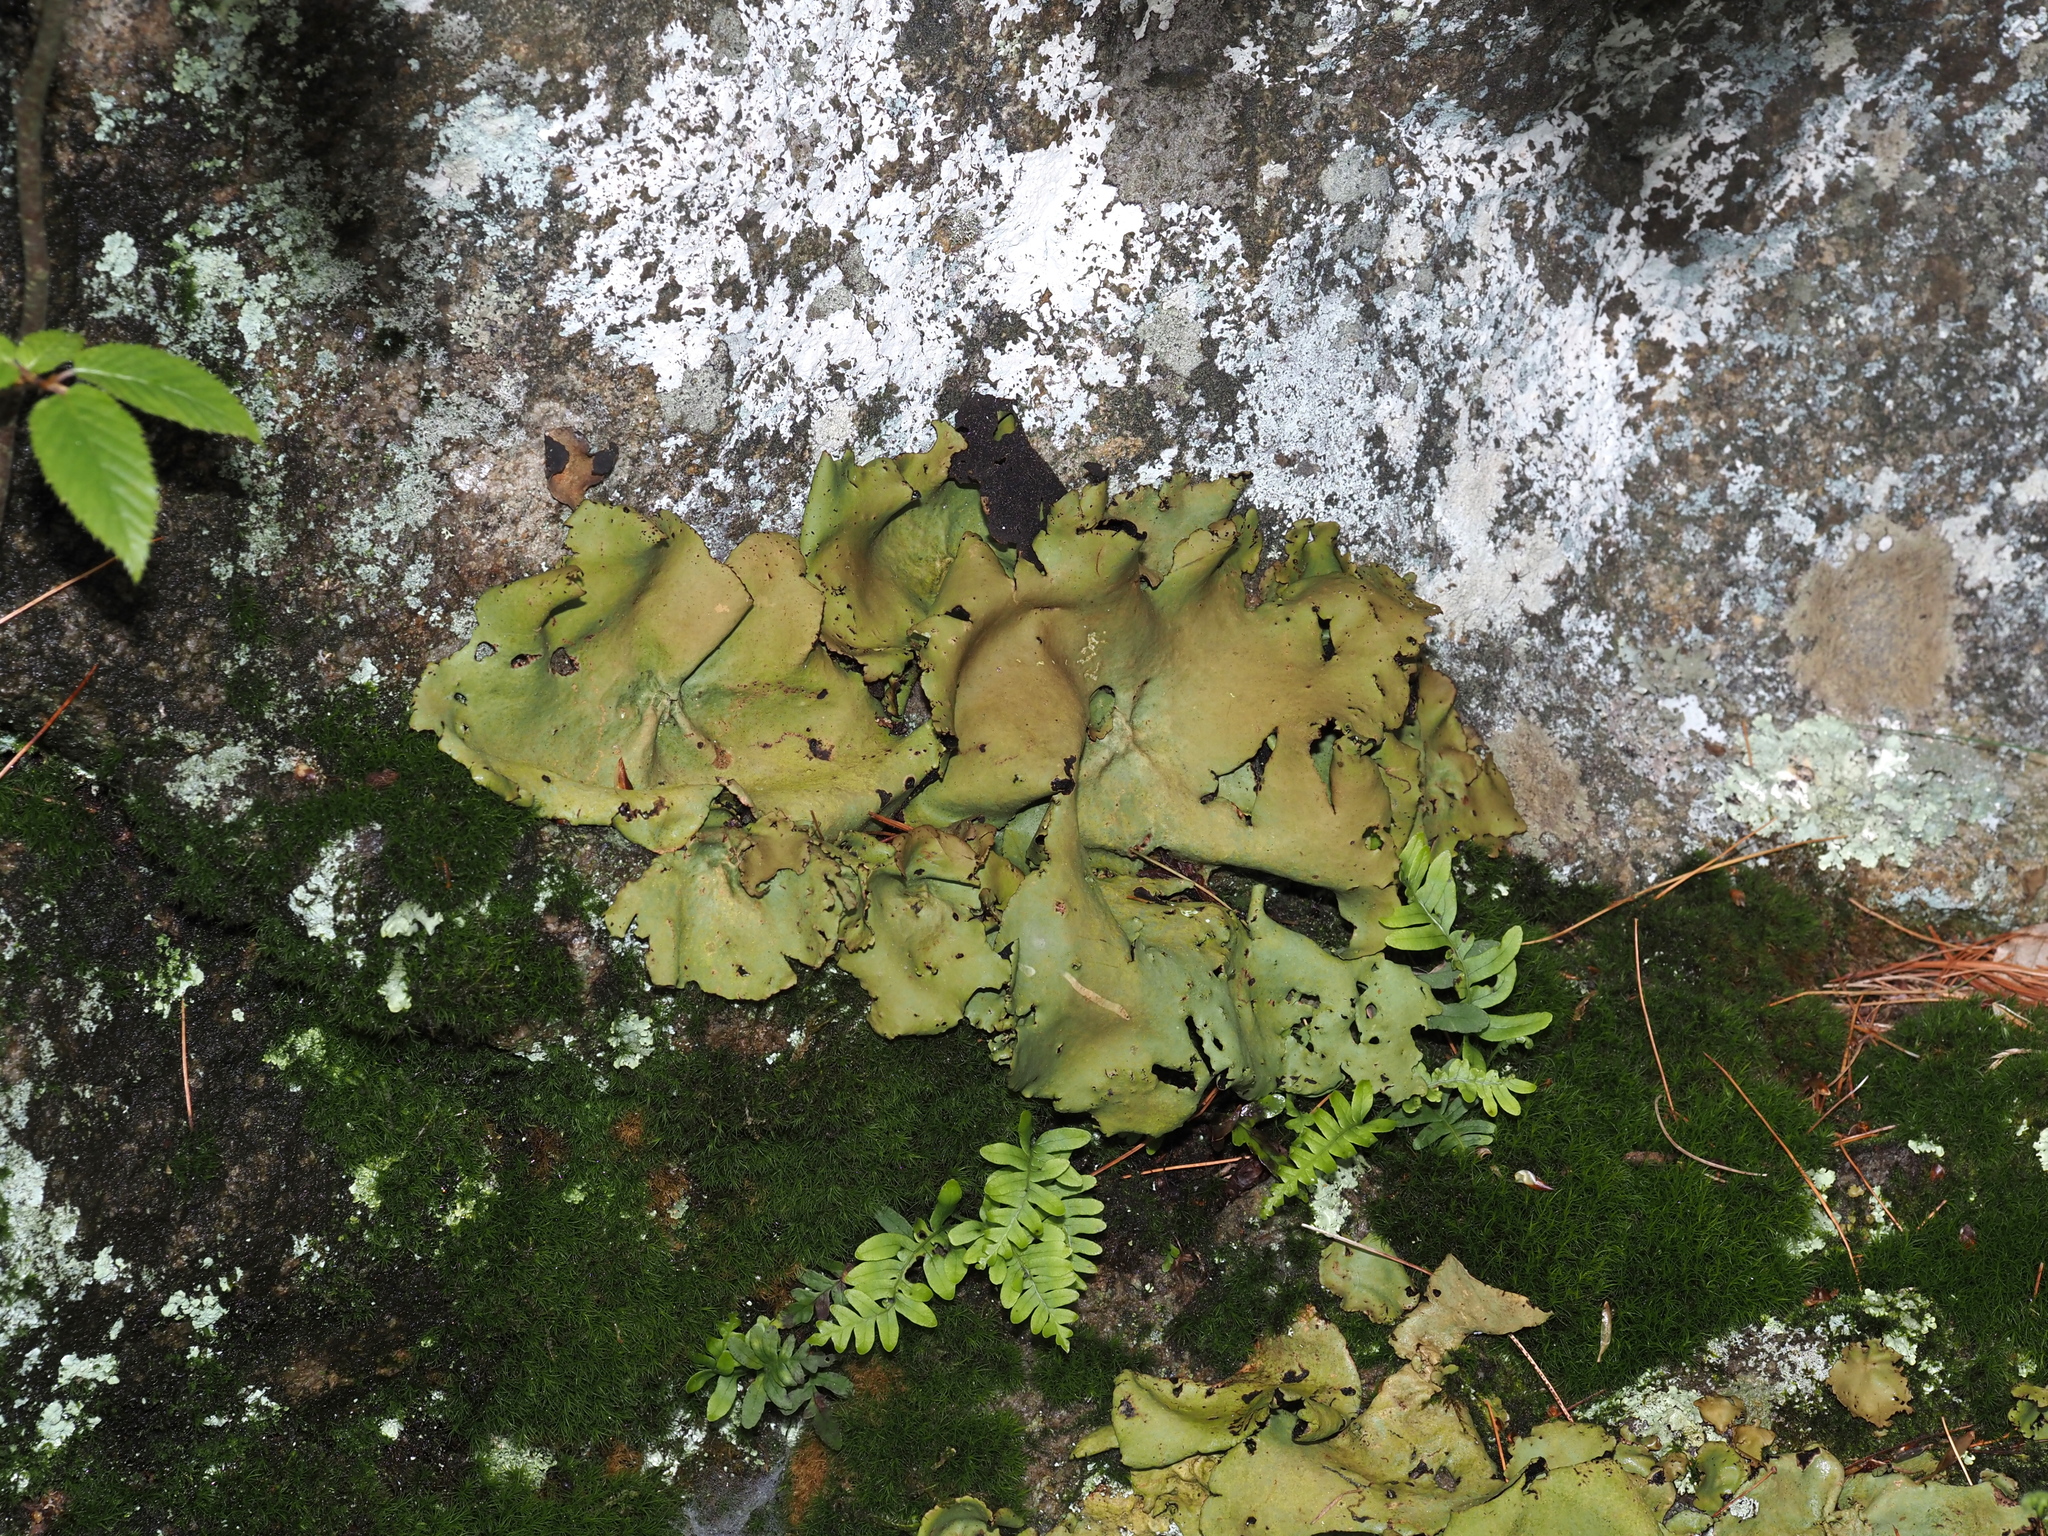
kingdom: Fungi
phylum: Ascomycota
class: Lecanoromycetes
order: Umbilicariales
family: Umbilicariaceae
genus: Umbilicaria
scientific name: Umbilicaria mammulata
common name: Smooth rock tripe
